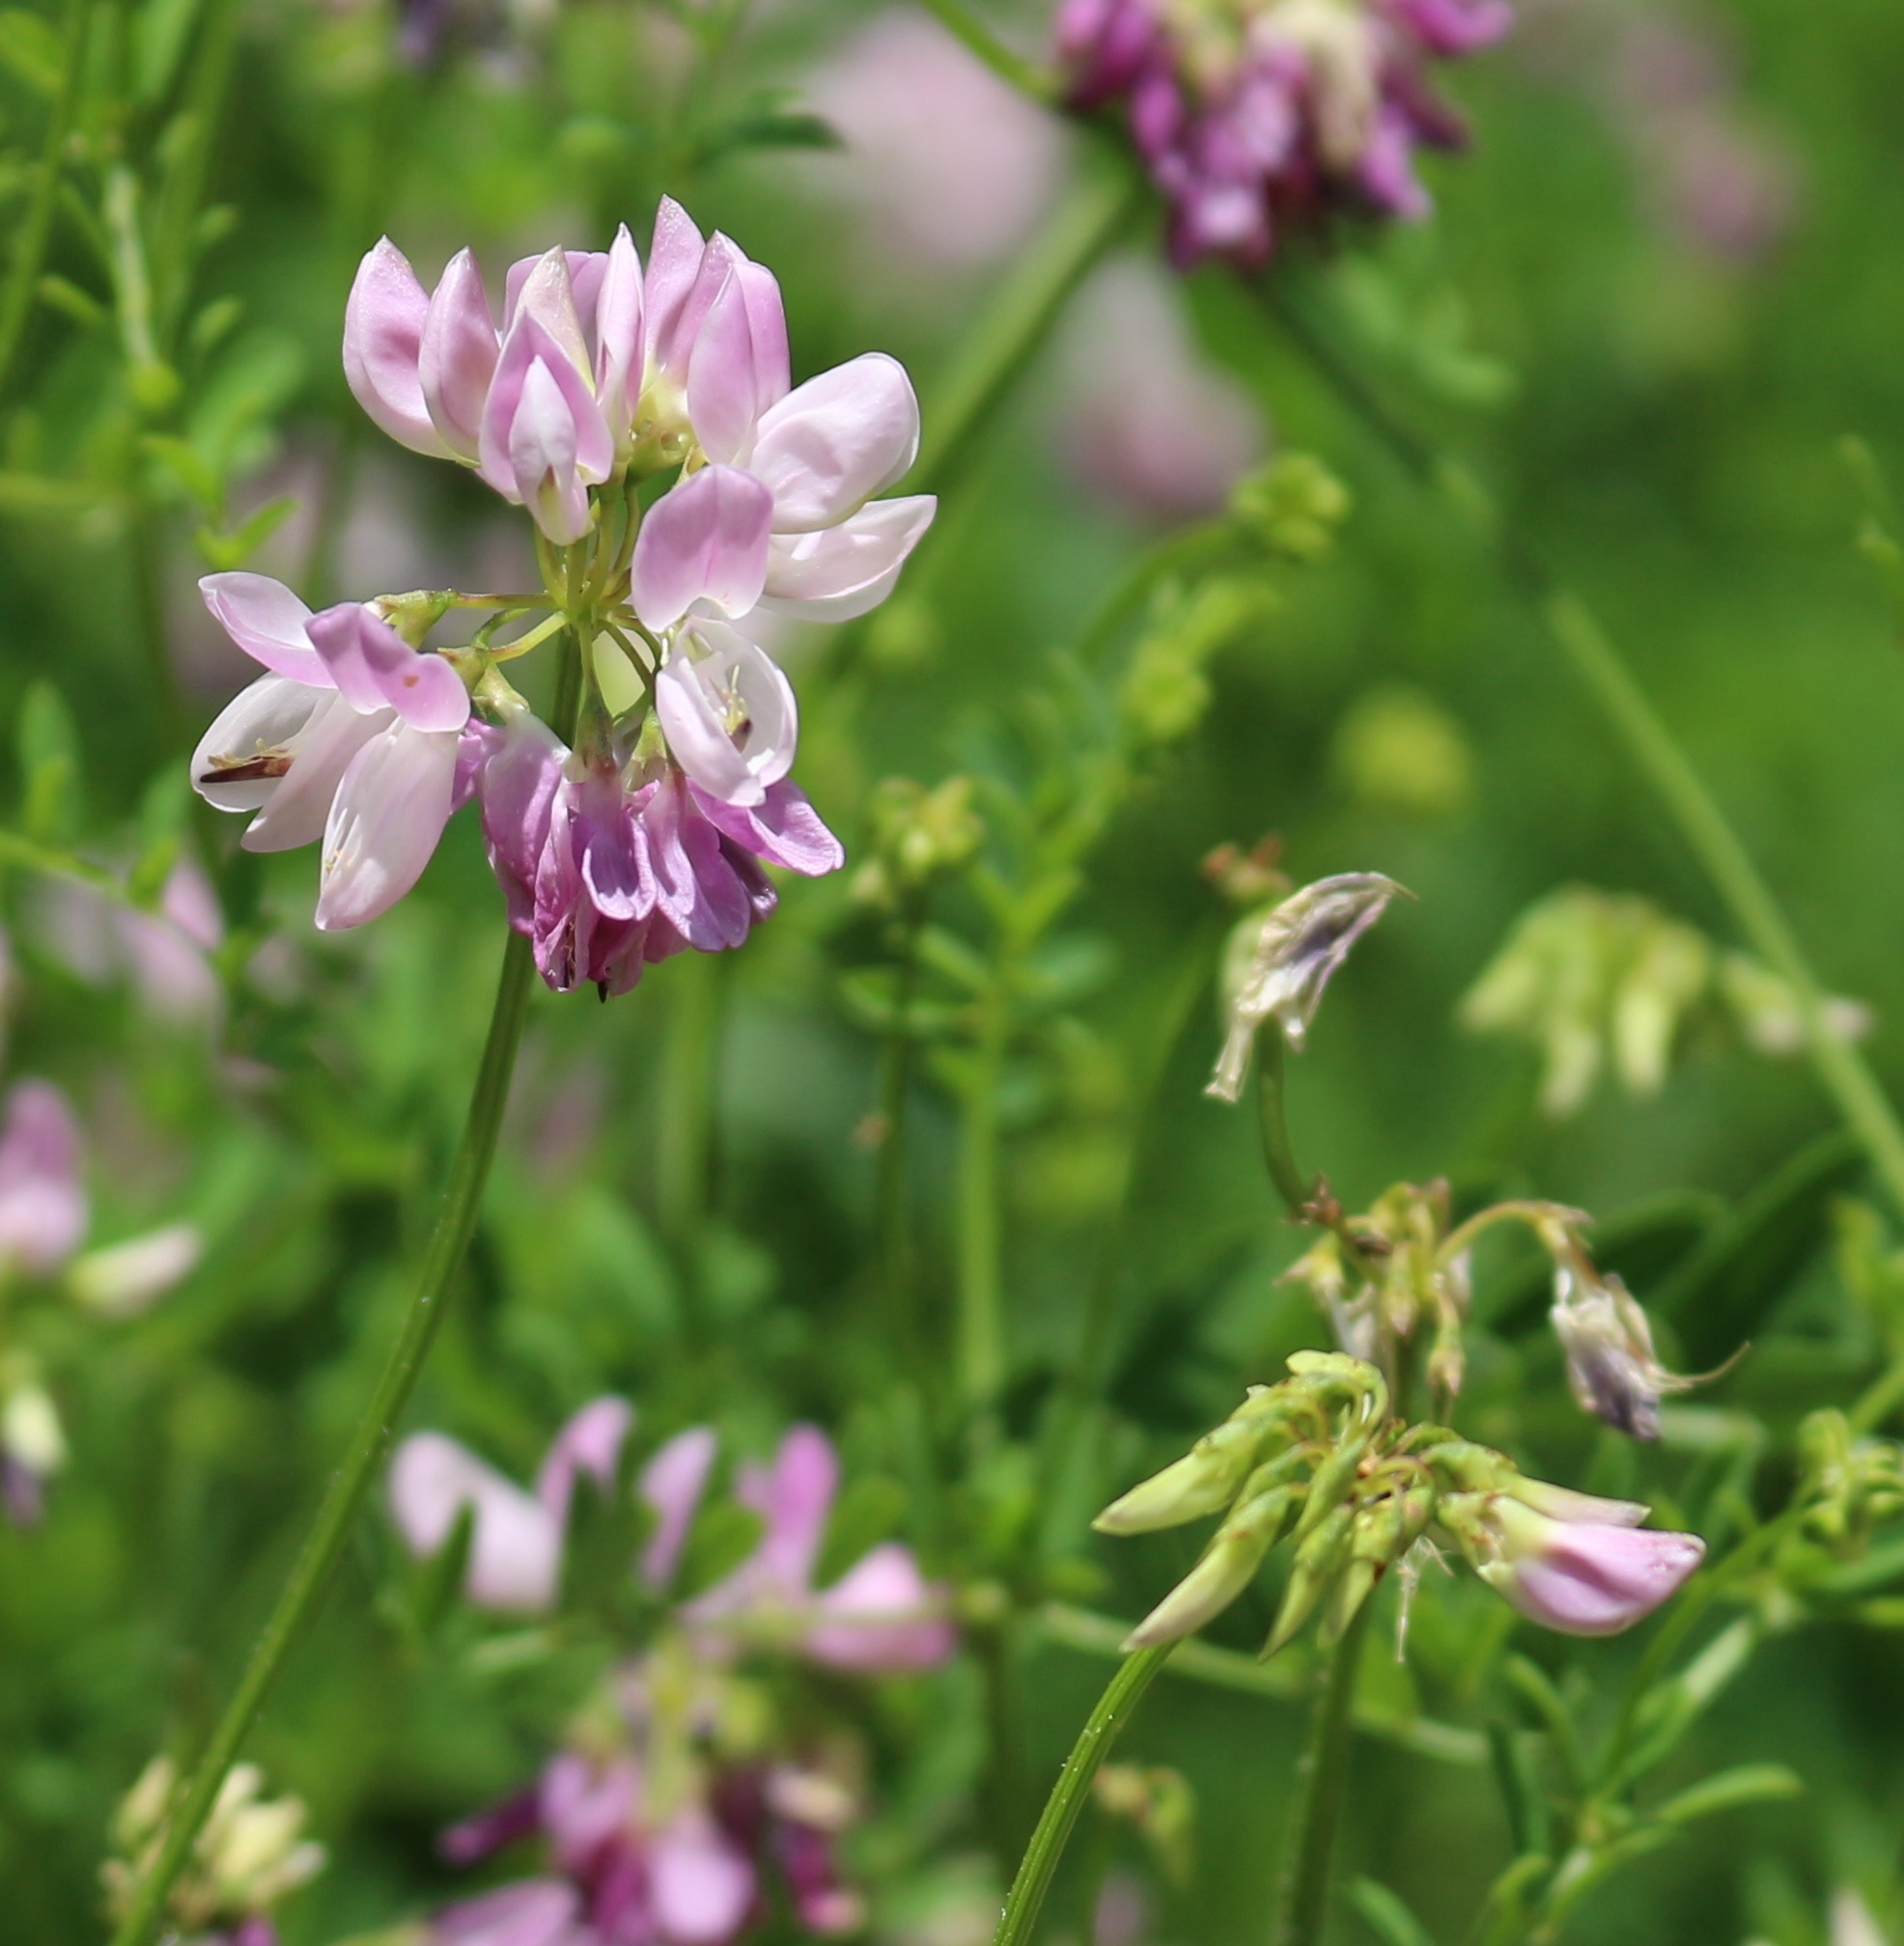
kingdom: Plantae
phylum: Tracheophyta
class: Magnoliopsida
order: Fabales
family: Fabaceae
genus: Coronilla
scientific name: Coronilla varia
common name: Crownvetch
